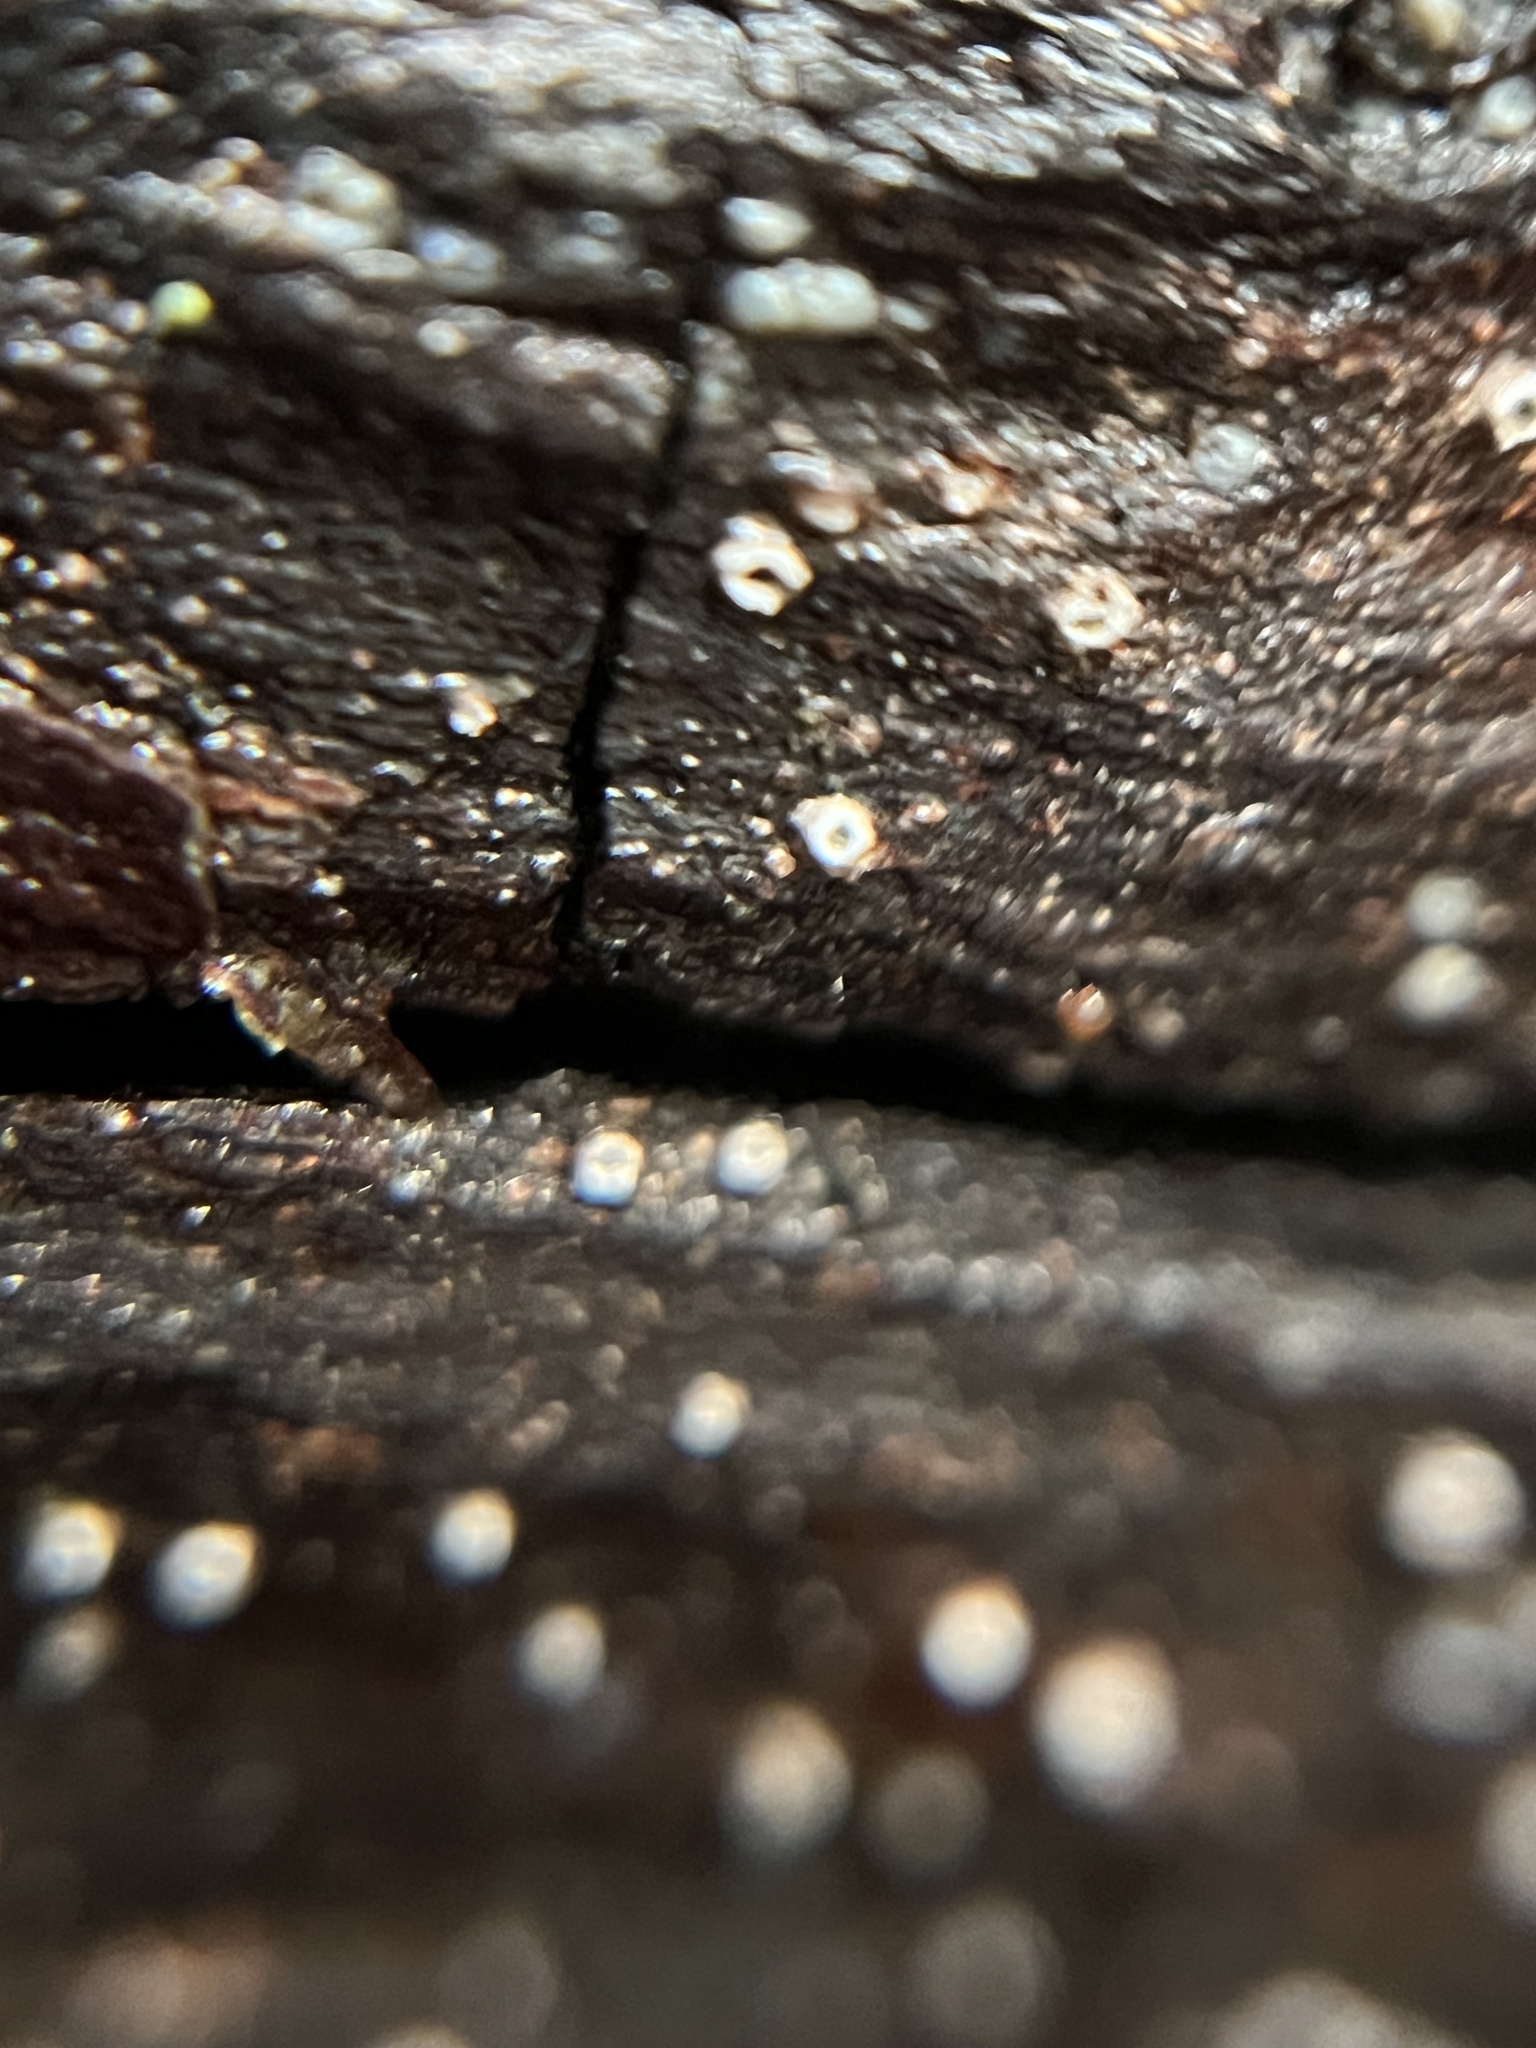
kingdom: Fungi
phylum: Ascomycota
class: Lecanoromycetes
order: Ostropales
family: Stictidaceae
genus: Stictis
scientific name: Stictis radiata
